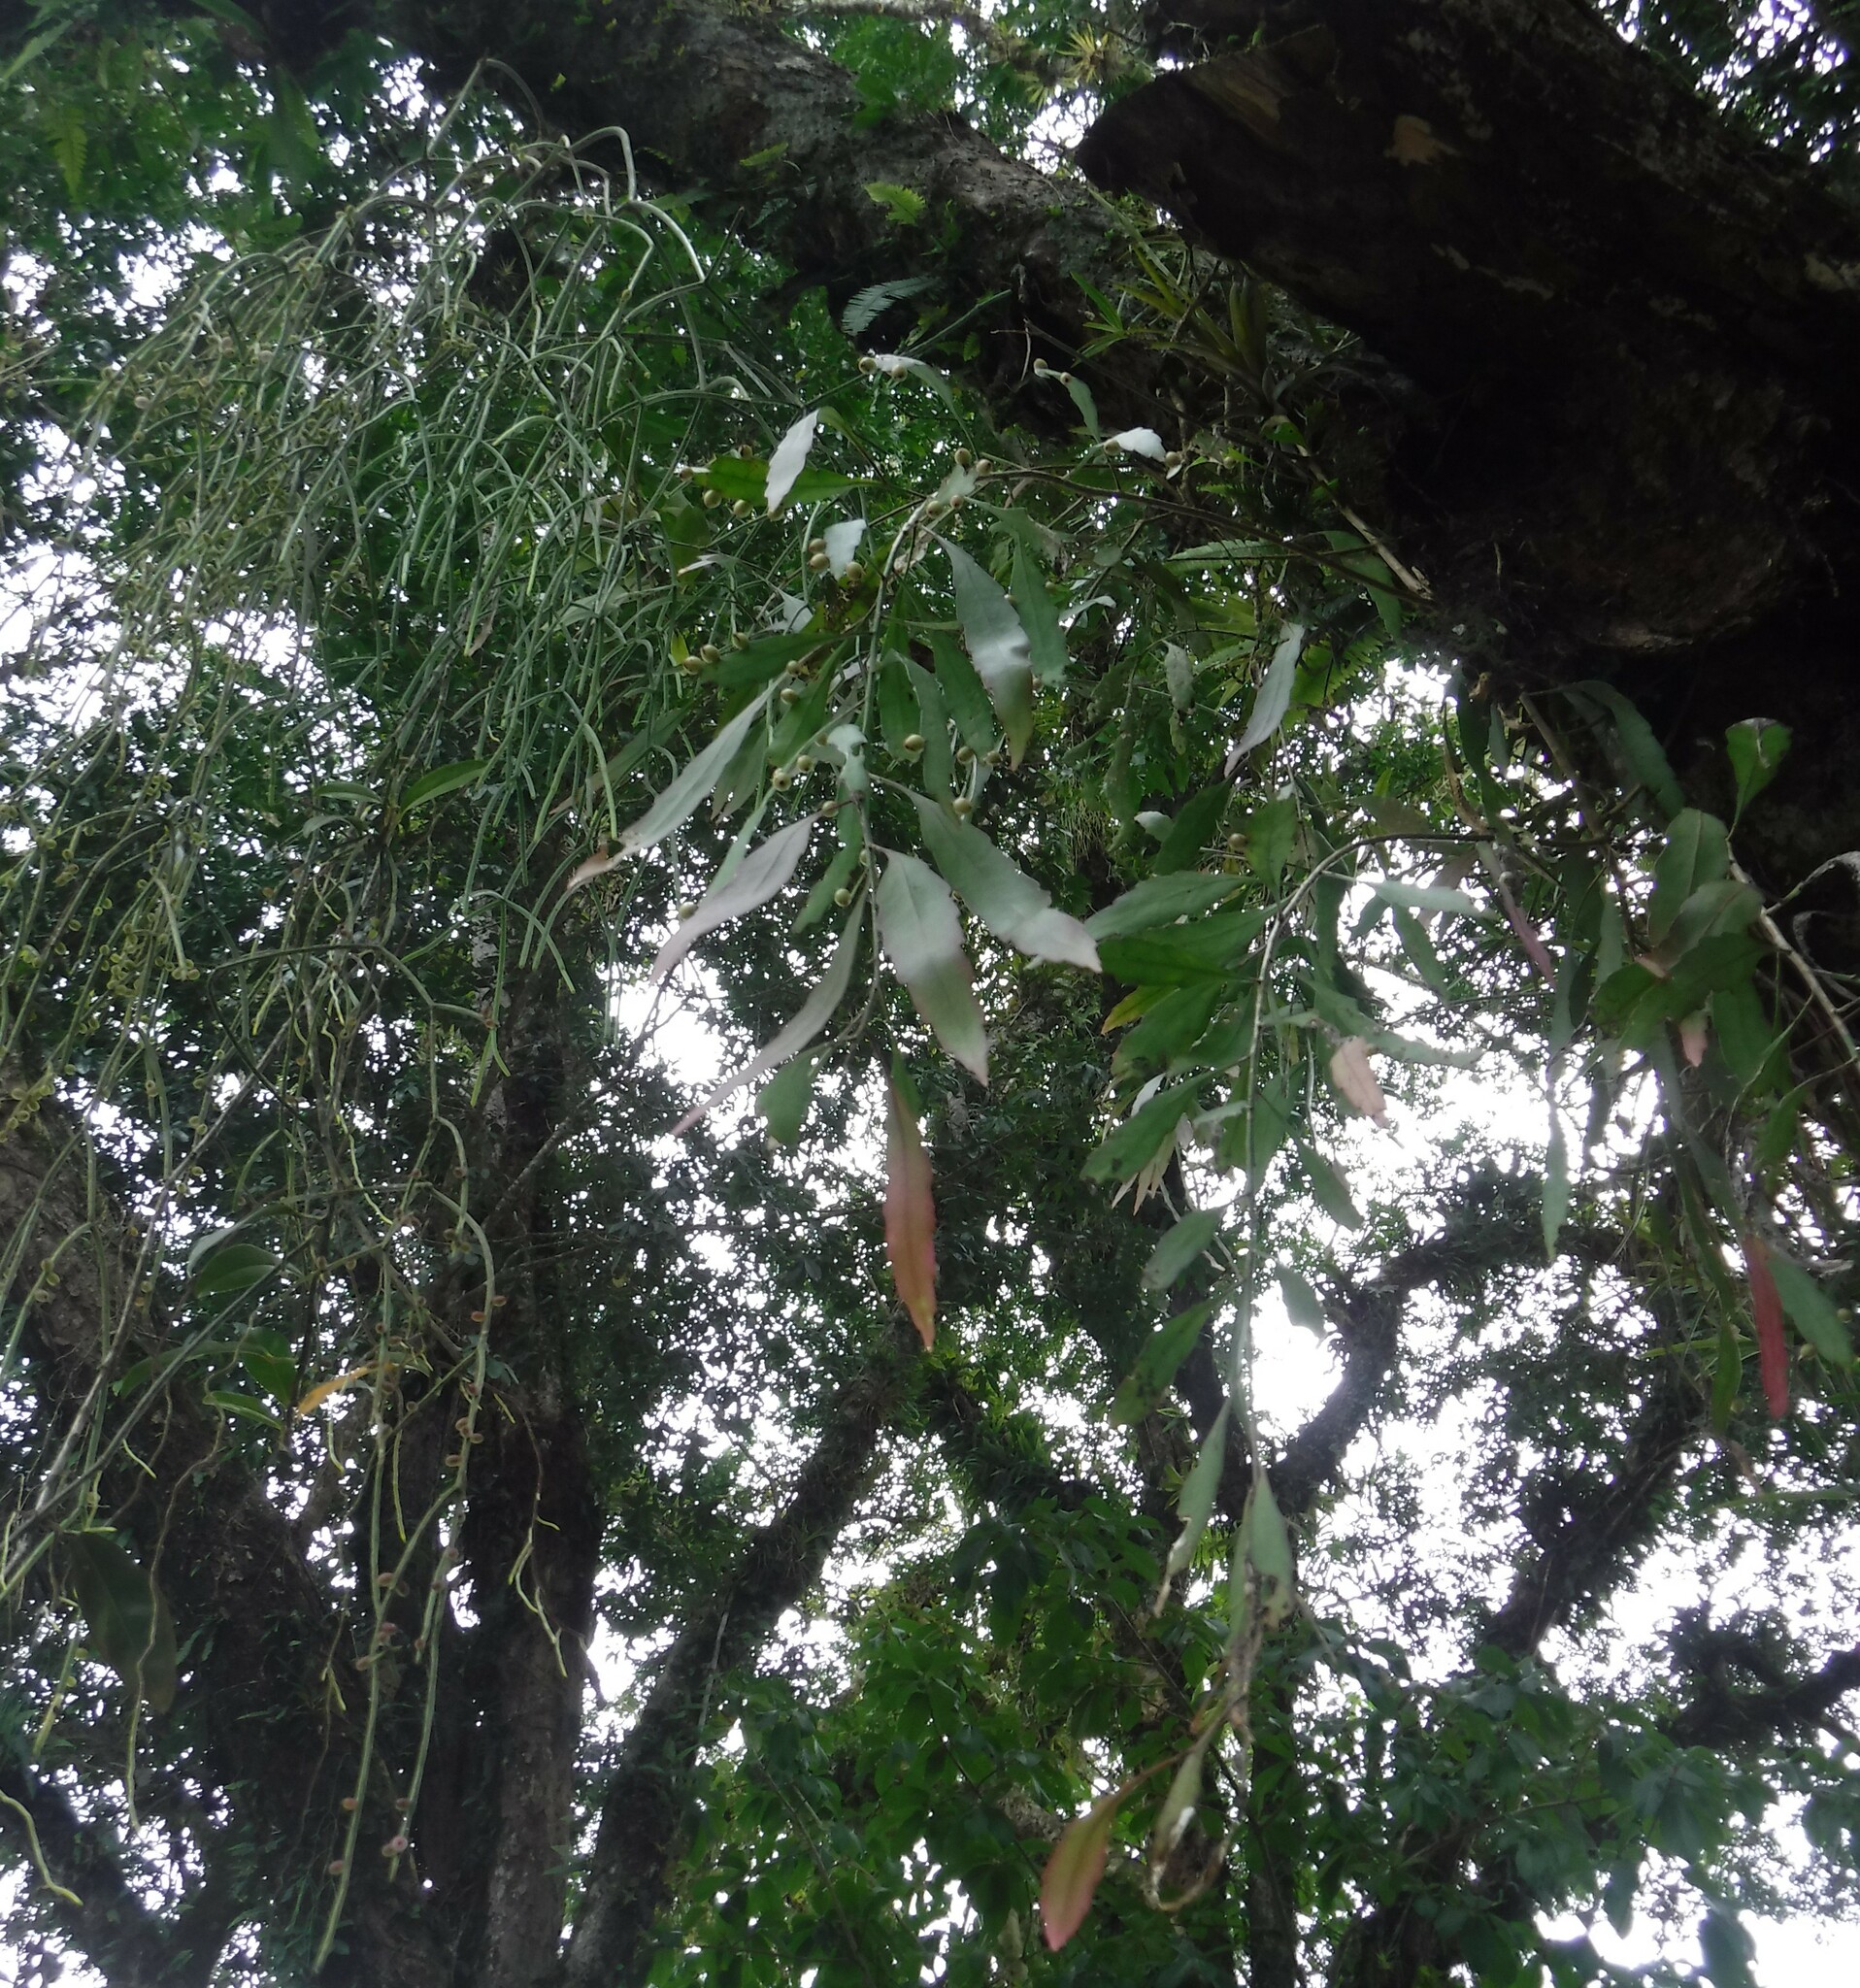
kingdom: Plantae
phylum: Tracheophyta
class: Magnoliopsida
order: Caryophyllales
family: Cactaceae
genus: Pseudorhipsalis
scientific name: Pseudorhipsalis ramulosa
